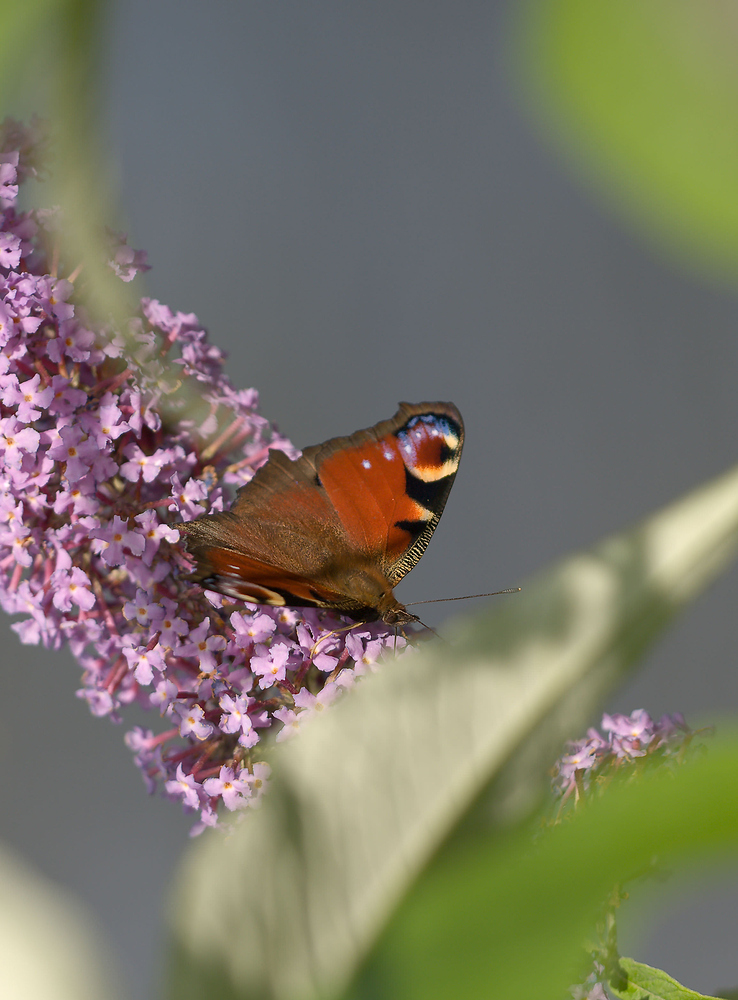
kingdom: Animalia
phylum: Arthropoda
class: Insecta
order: Lepidoptera
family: Nymphalidae
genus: Aglais
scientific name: Aglais io
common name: Peacock
